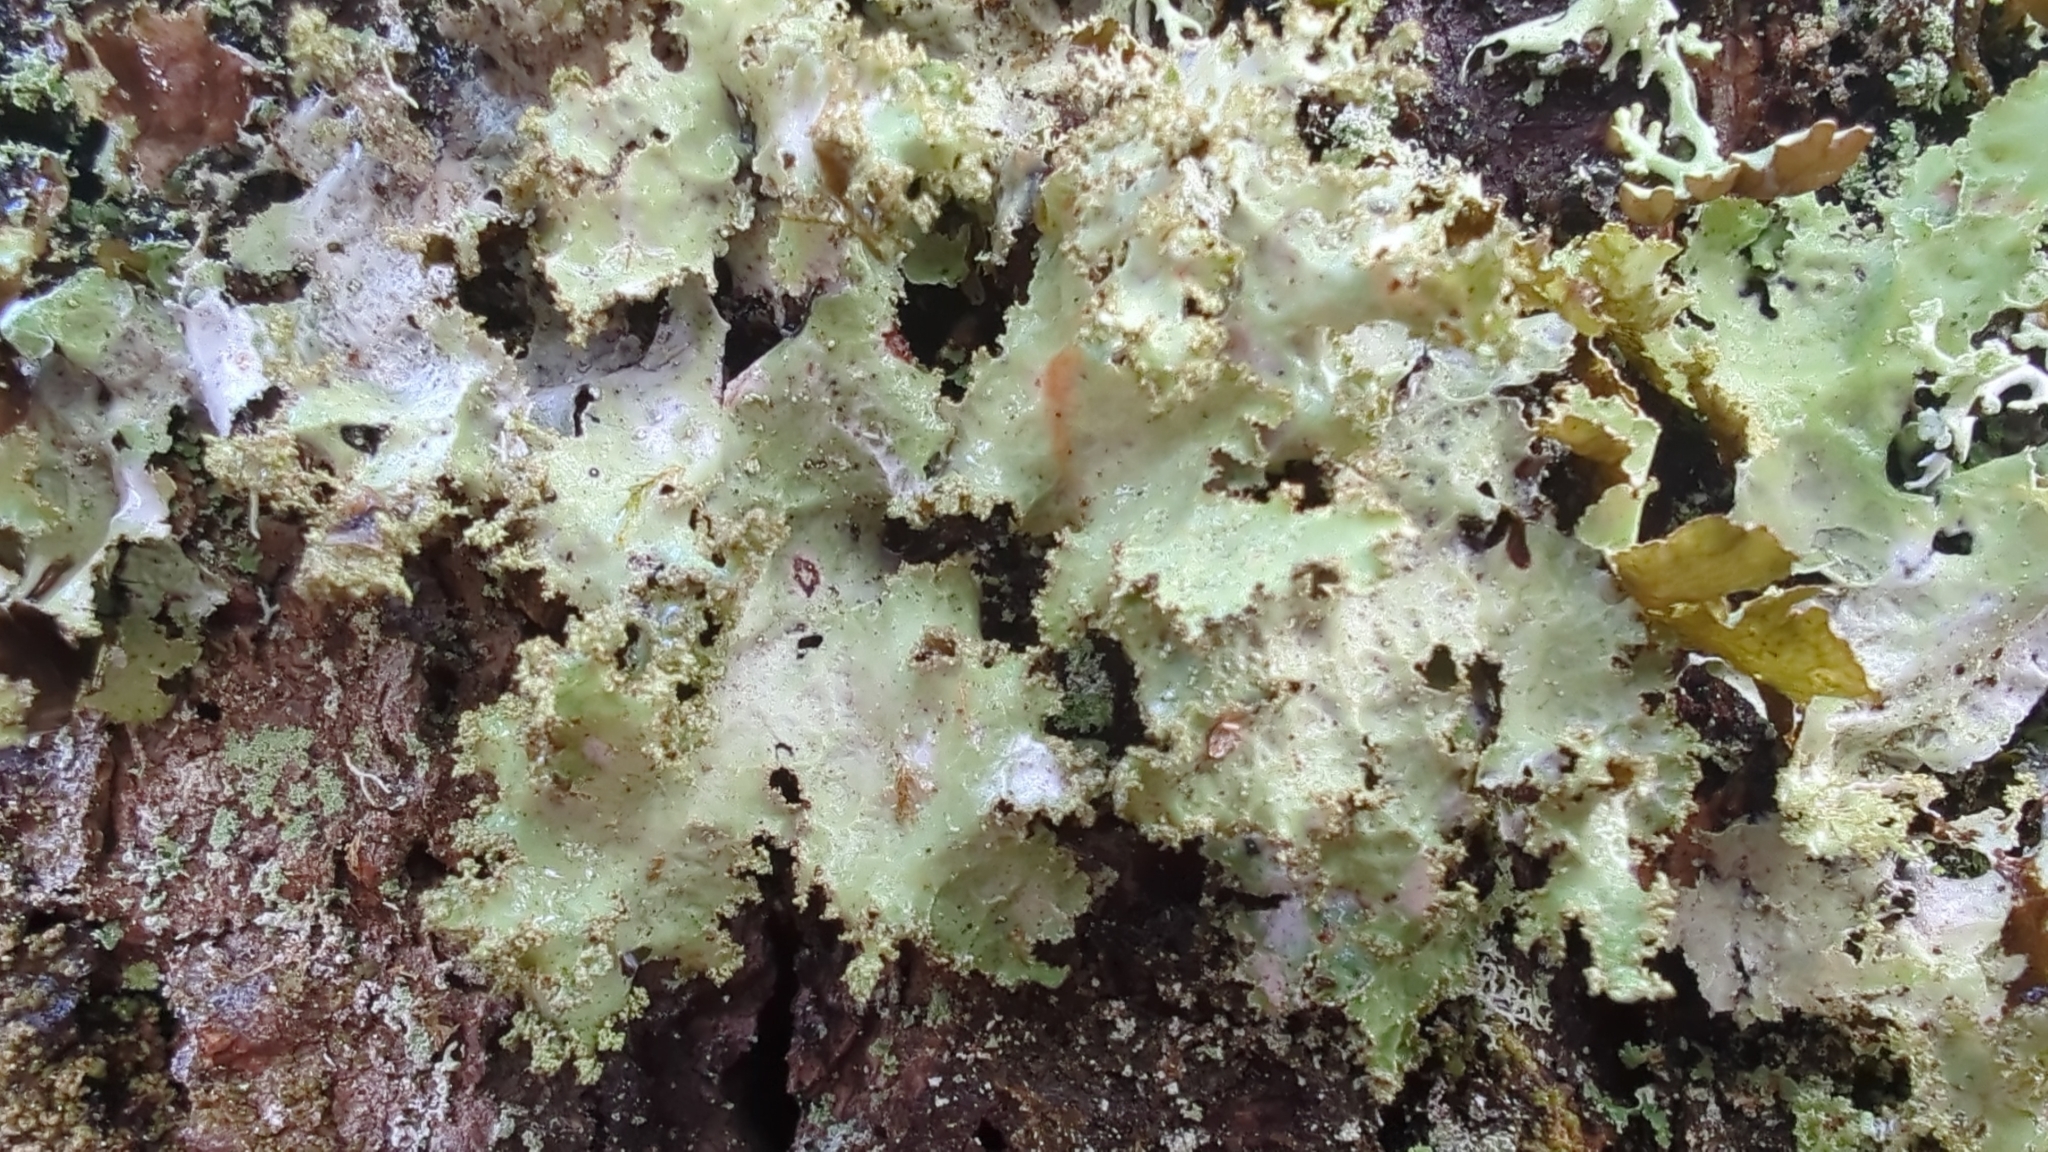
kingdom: Fungi
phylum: Ascomycota
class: Lecanoromycetes
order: Lecanorales
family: Parmeliaceae
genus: Platismatia
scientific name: Platismatia glauca
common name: Varied rag lichen
